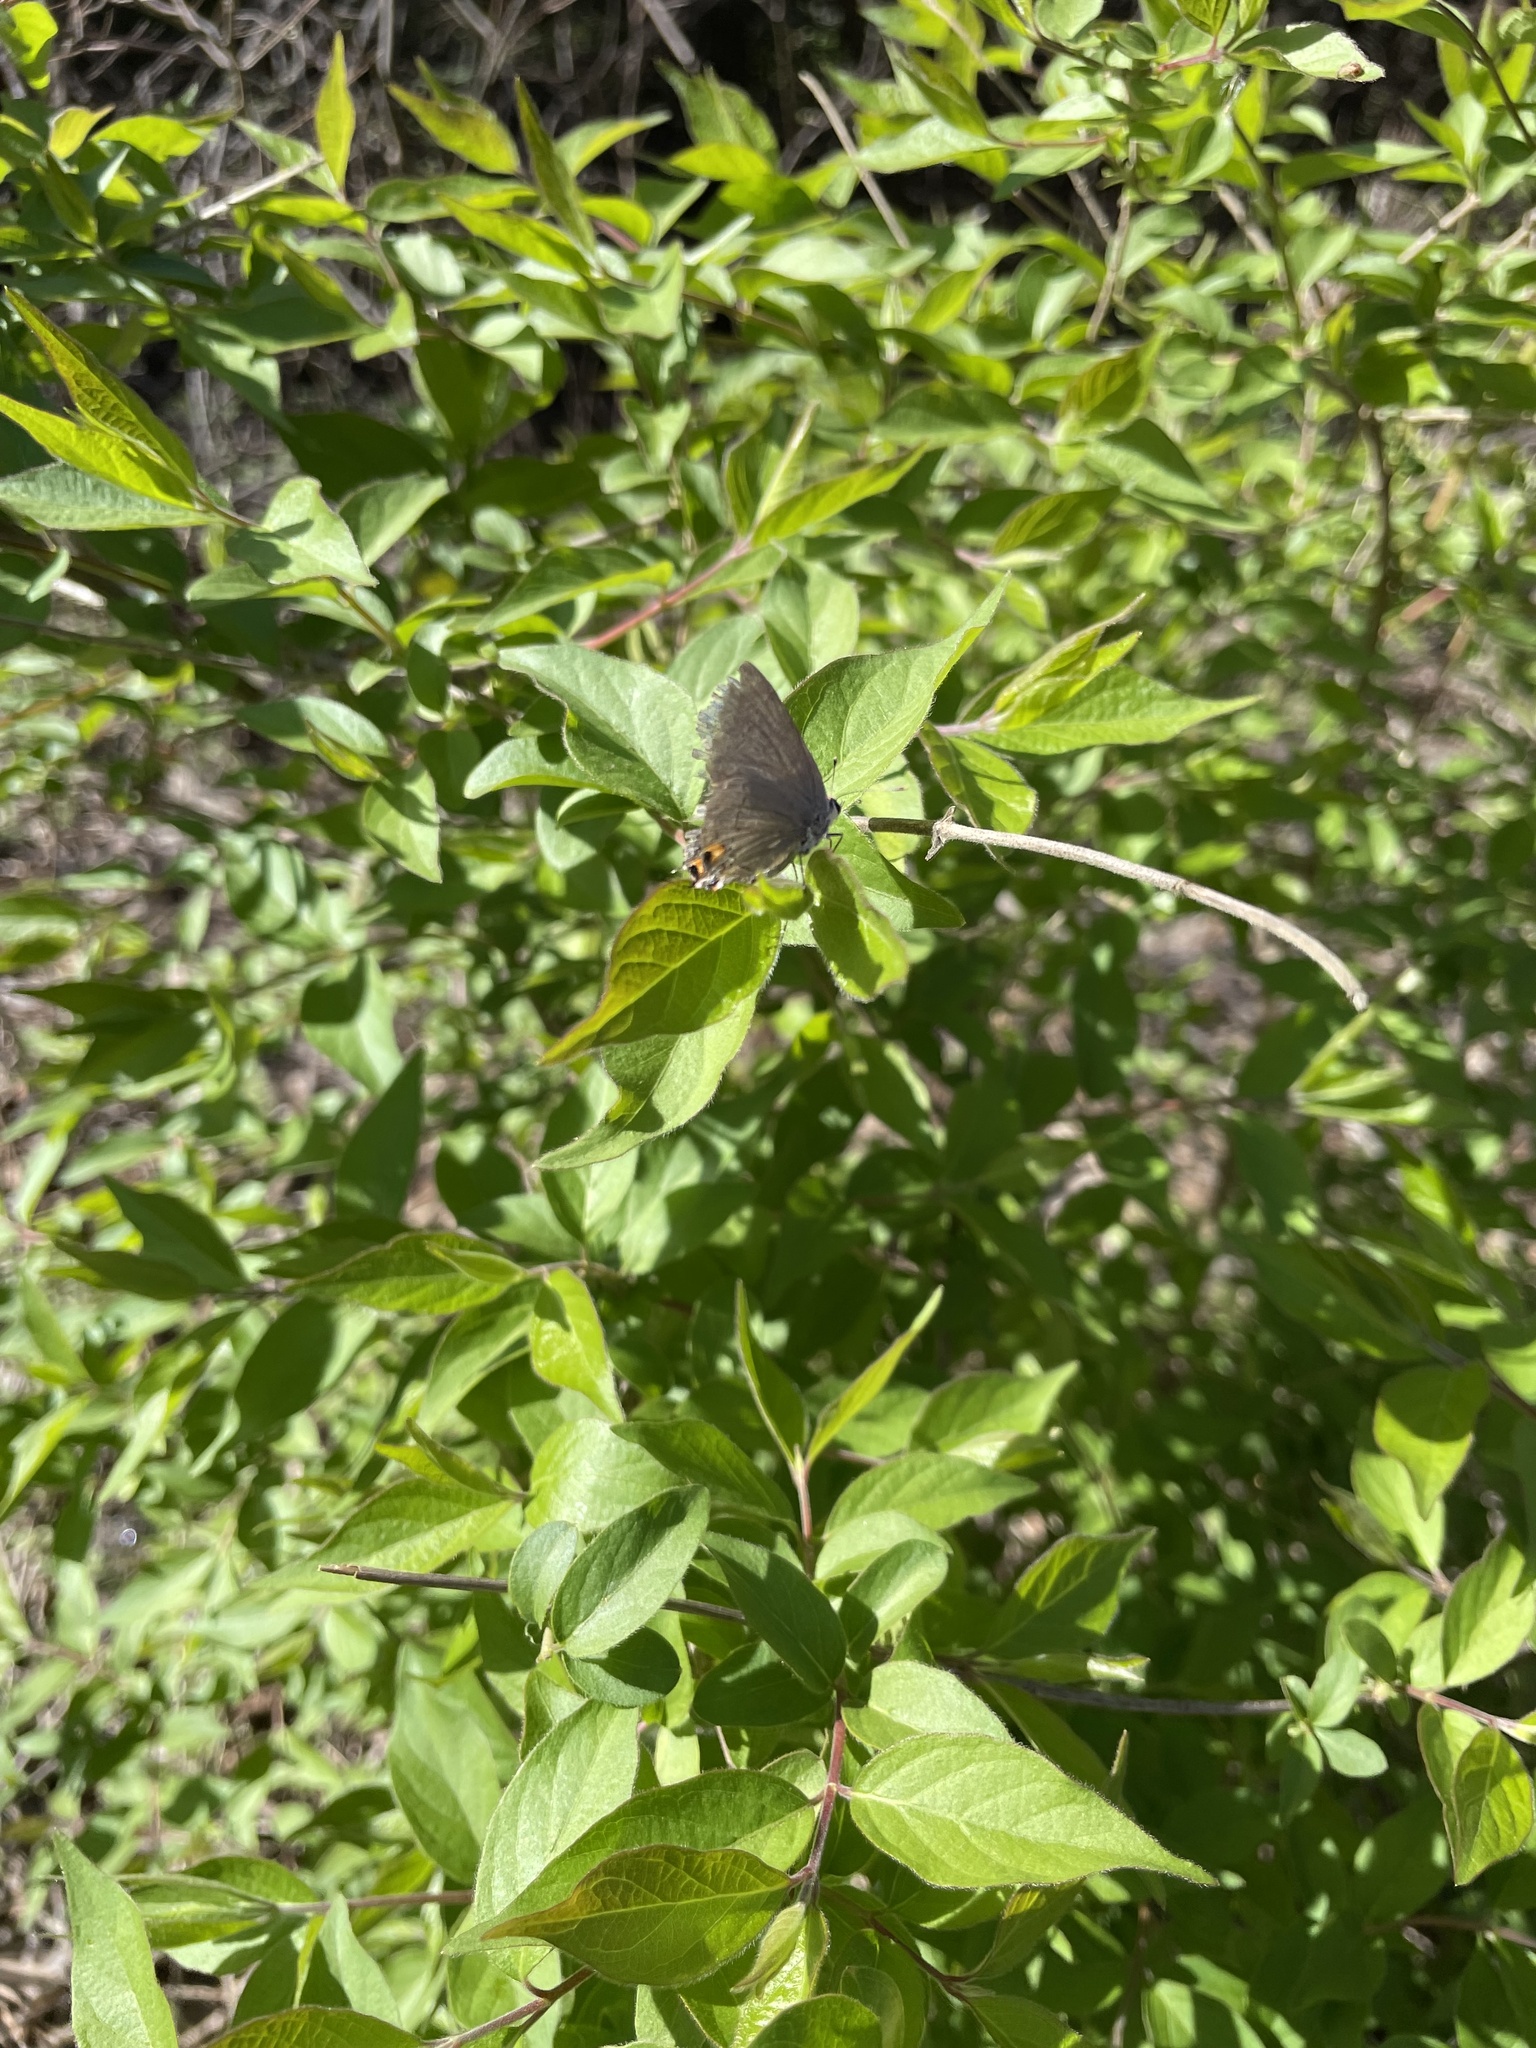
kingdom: Animalia
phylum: Arthropoda
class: Insecta
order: Lepidoptera
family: Lycaenidae
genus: Strymon
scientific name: Strymon melinus
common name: Gray hairstreak
